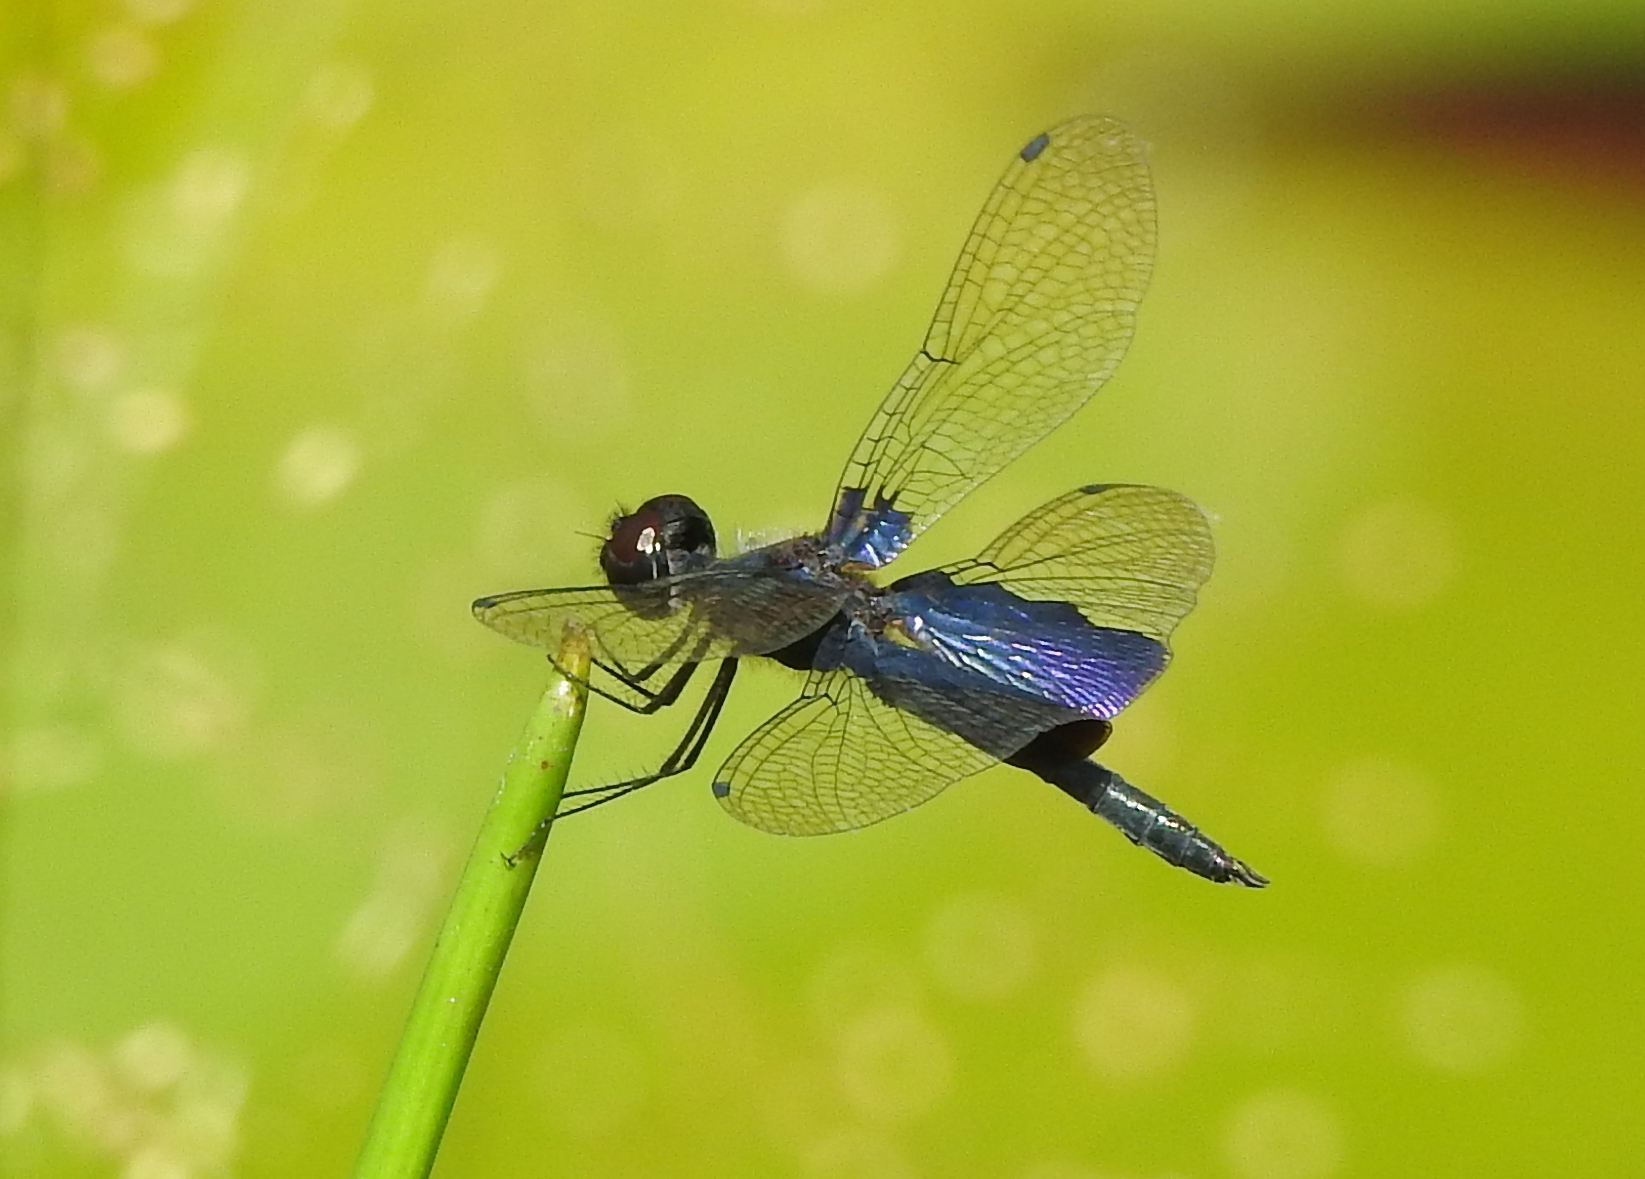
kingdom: Animalia
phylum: Arthropoda
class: Insecta
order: Odonata
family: Libellulidae
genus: Rhyothemis
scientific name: Rhyothemis triangularis
